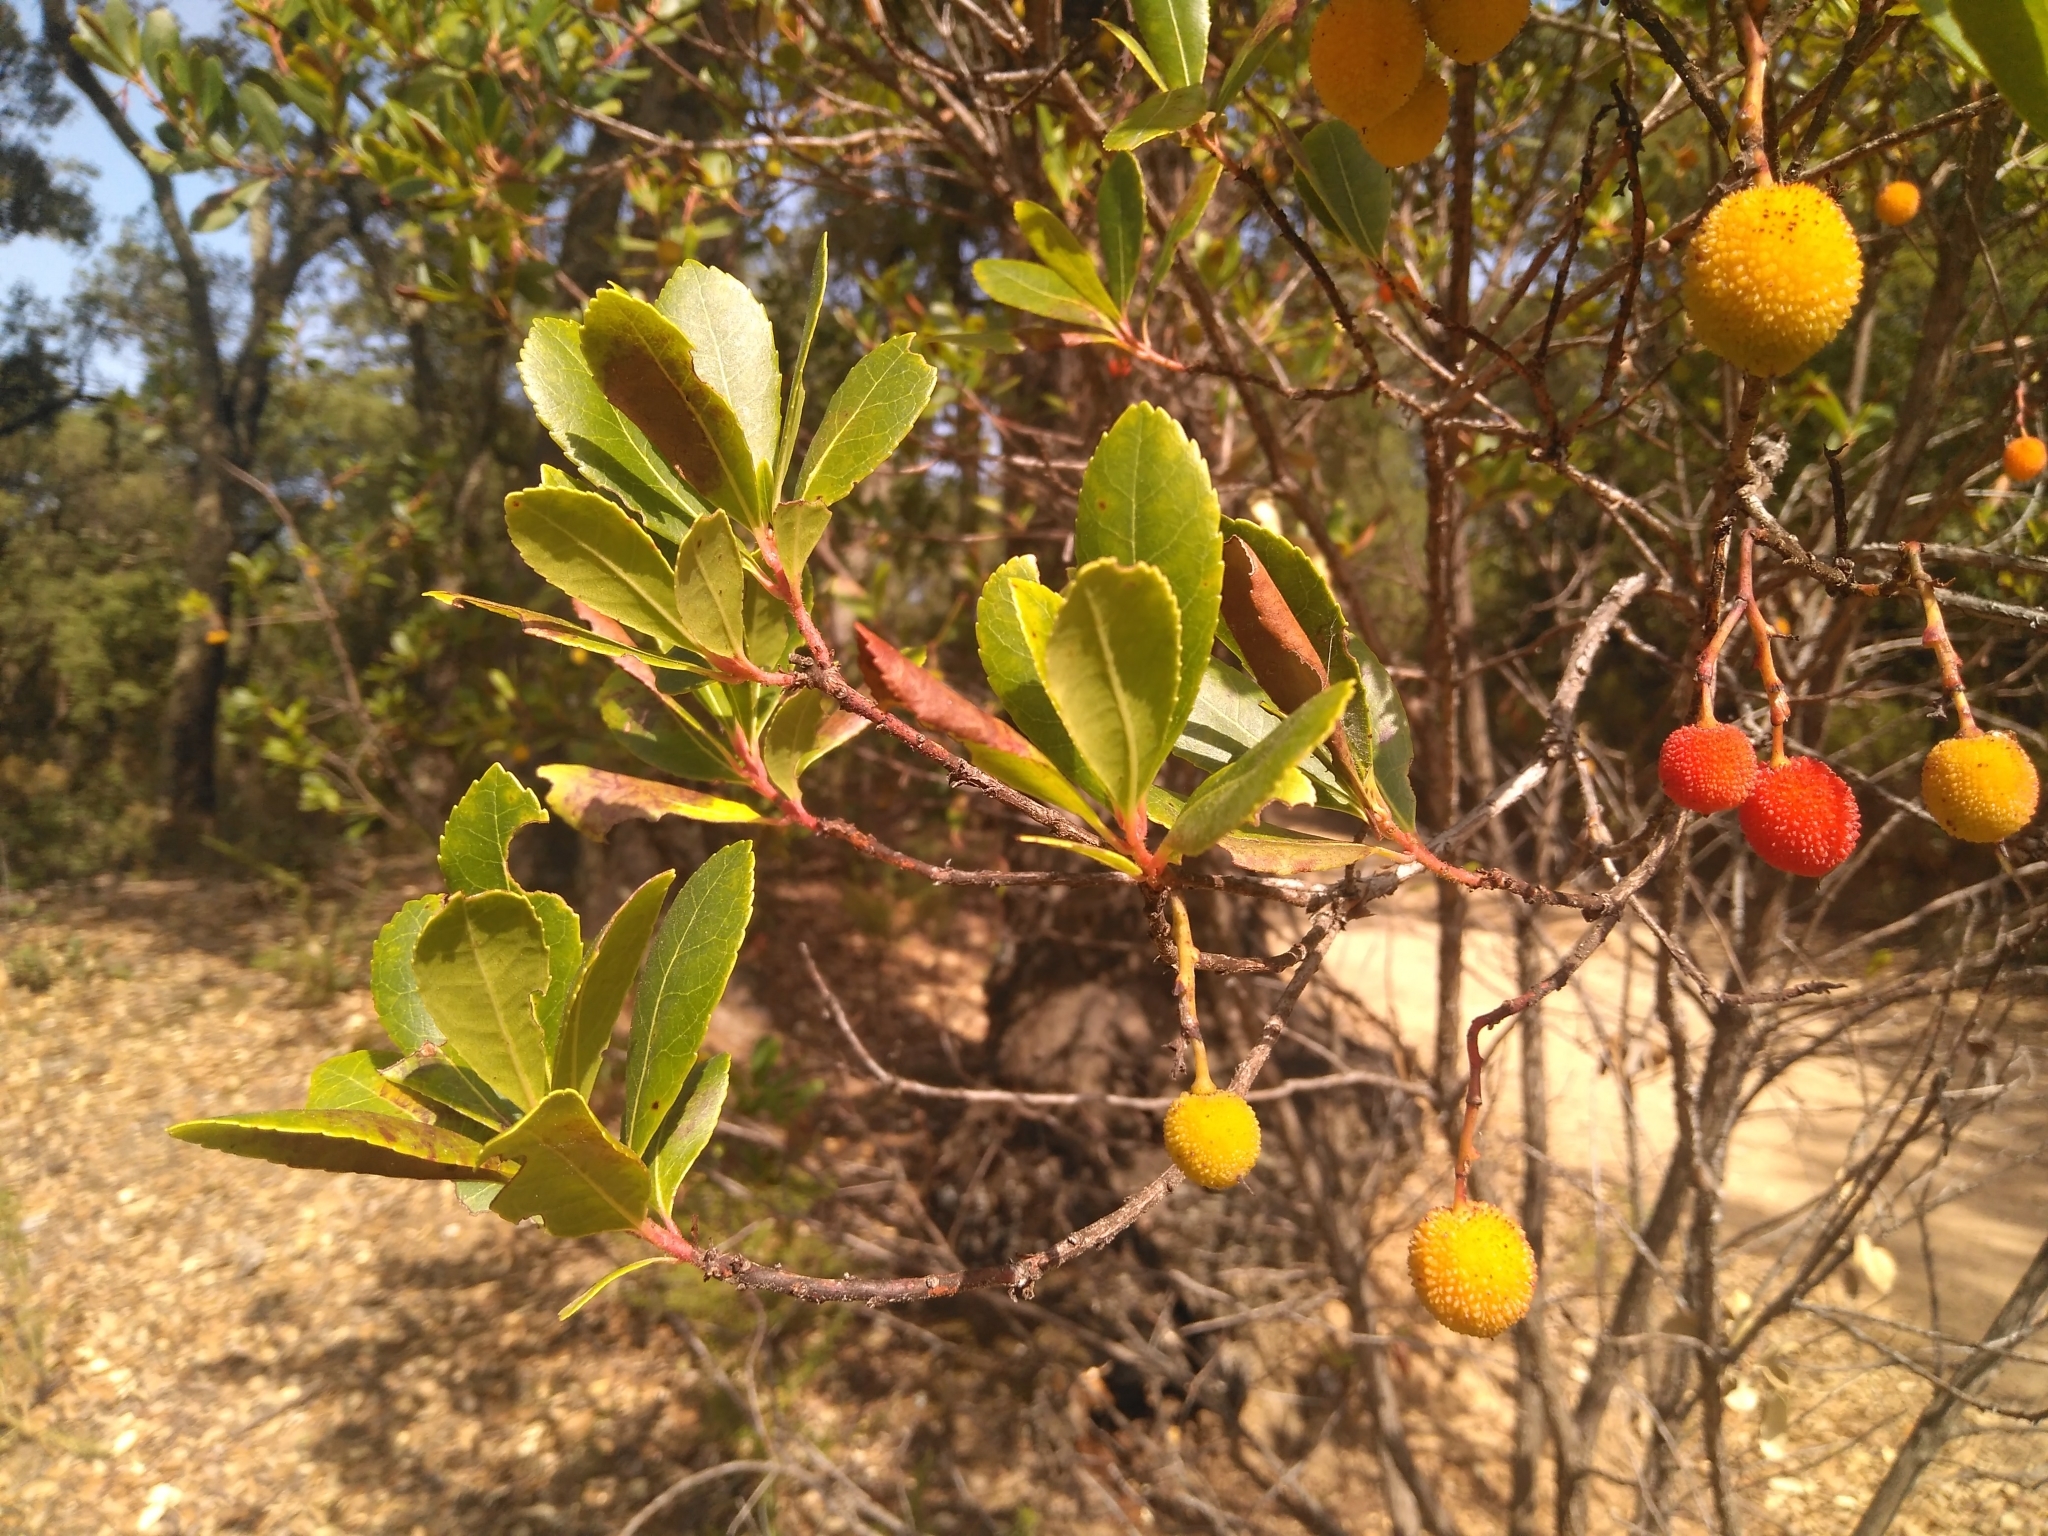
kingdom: Plantae
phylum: Tracheophyta
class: Magnoliopsida
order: Ericales
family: Ericaceae
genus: Arbutus
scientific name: Arbutus unedo
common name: Strawberry-tree
